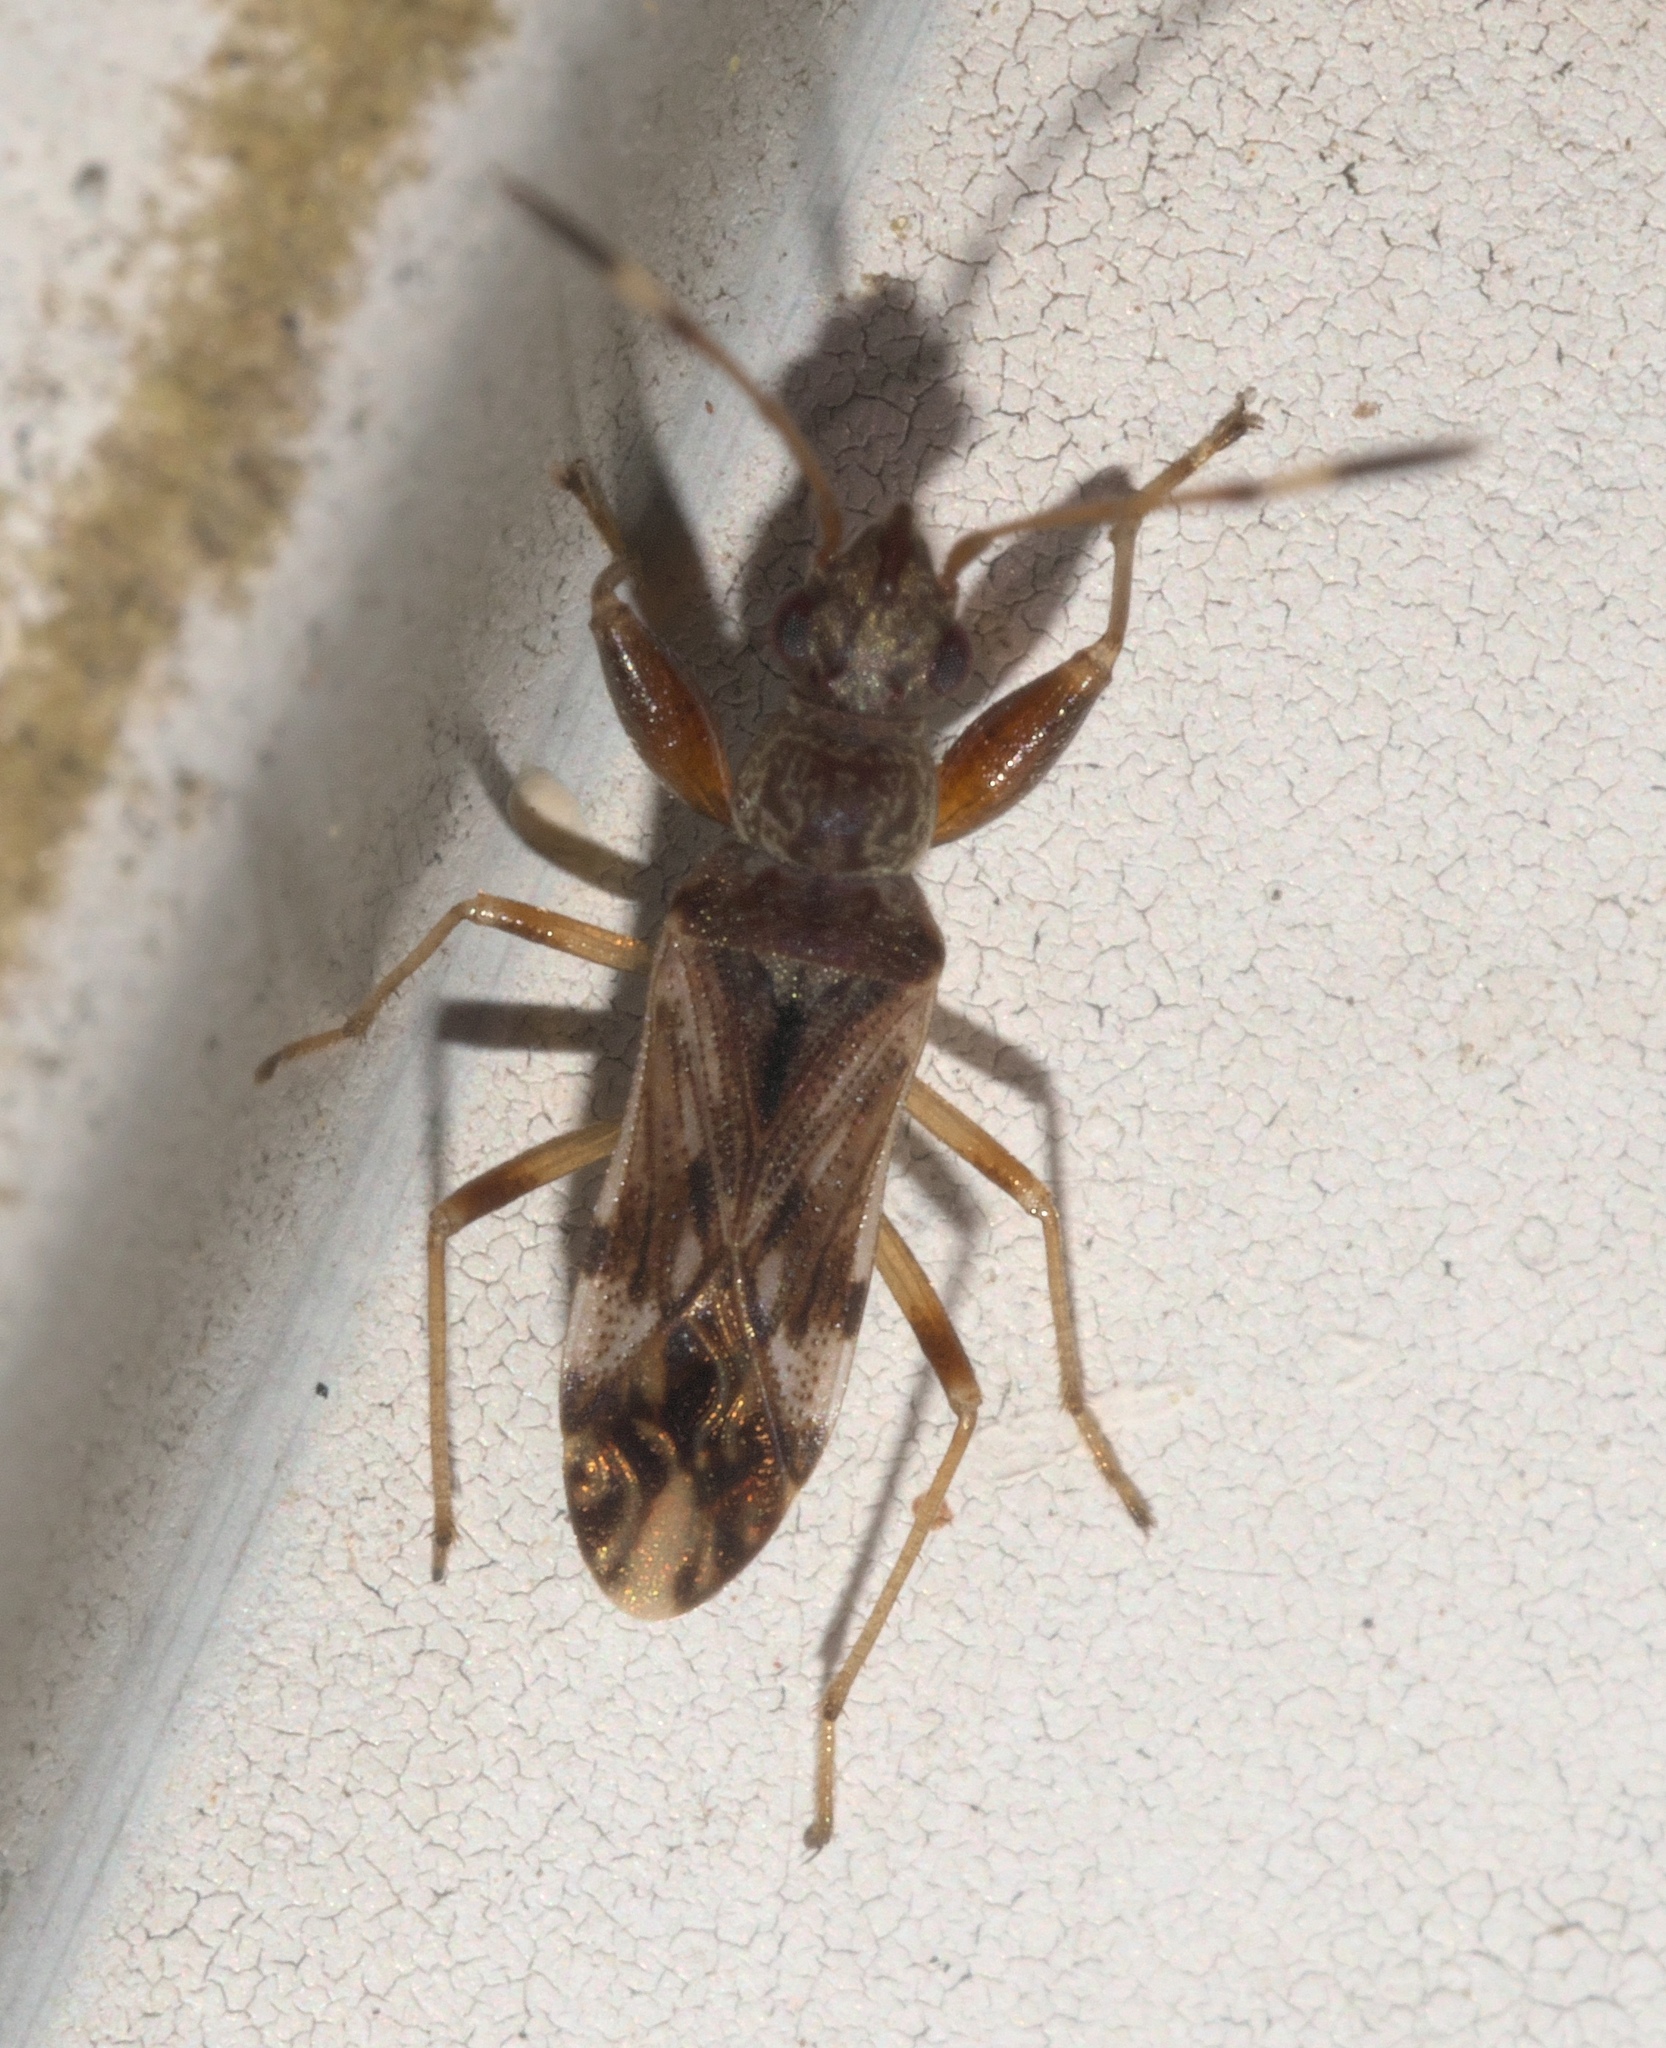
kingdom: Animalia
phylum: Arthropoda
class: Insecta
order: Hemiptera
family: Rhyparochromidae
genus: Neopamera
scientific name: Neopamera albocincta
